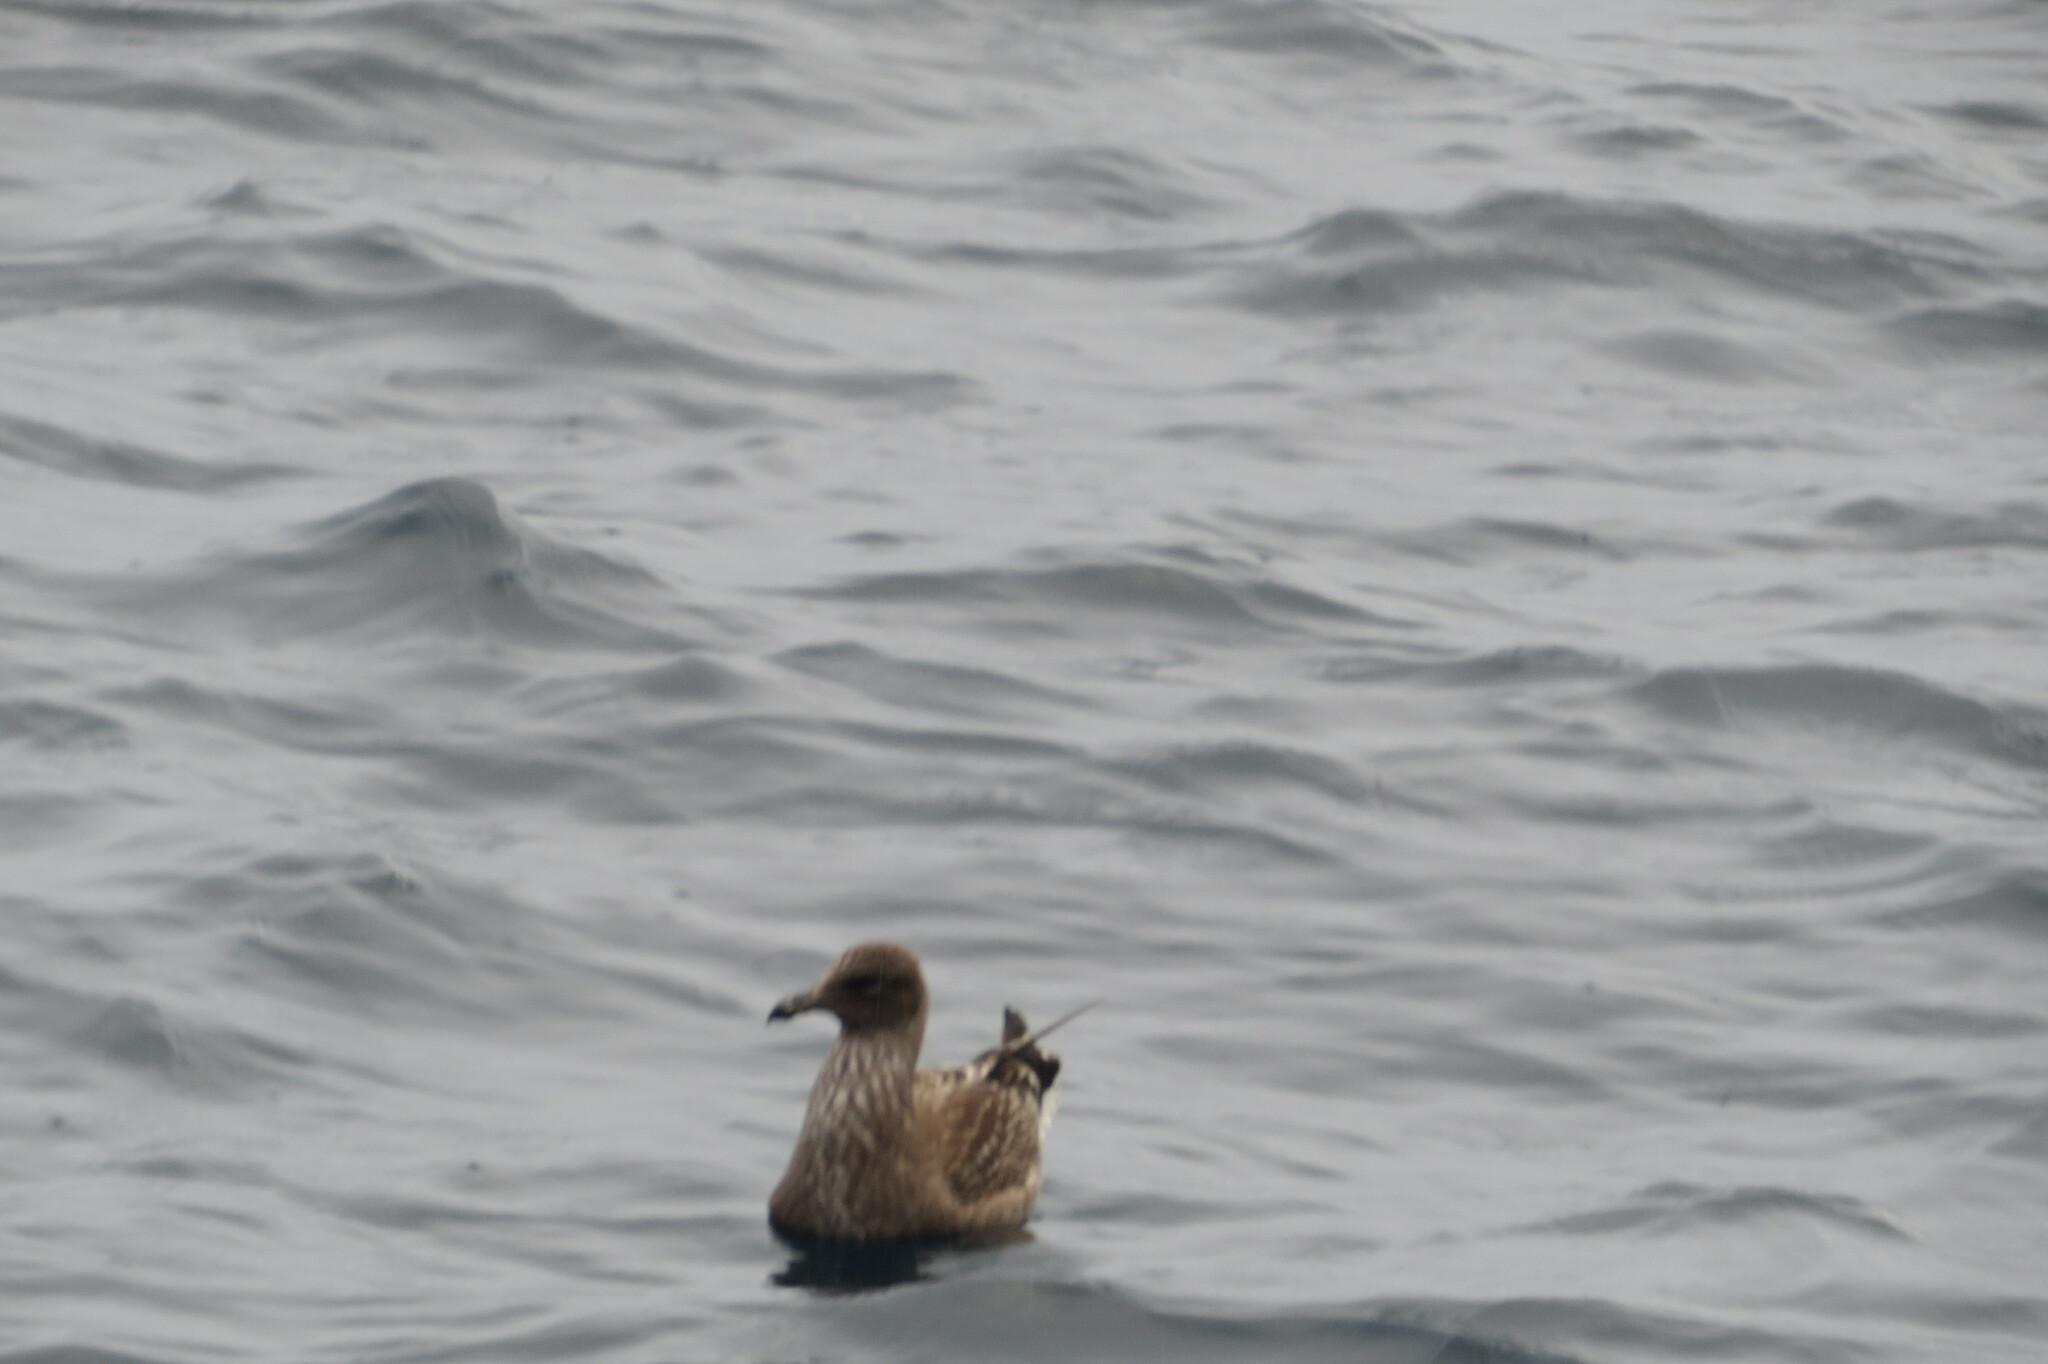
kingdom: Animalia
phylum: Chordata
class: Aves
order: Charadriiformes
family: Laridae
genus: Larus
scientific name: Larus dominicanus
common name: Kelp gull
